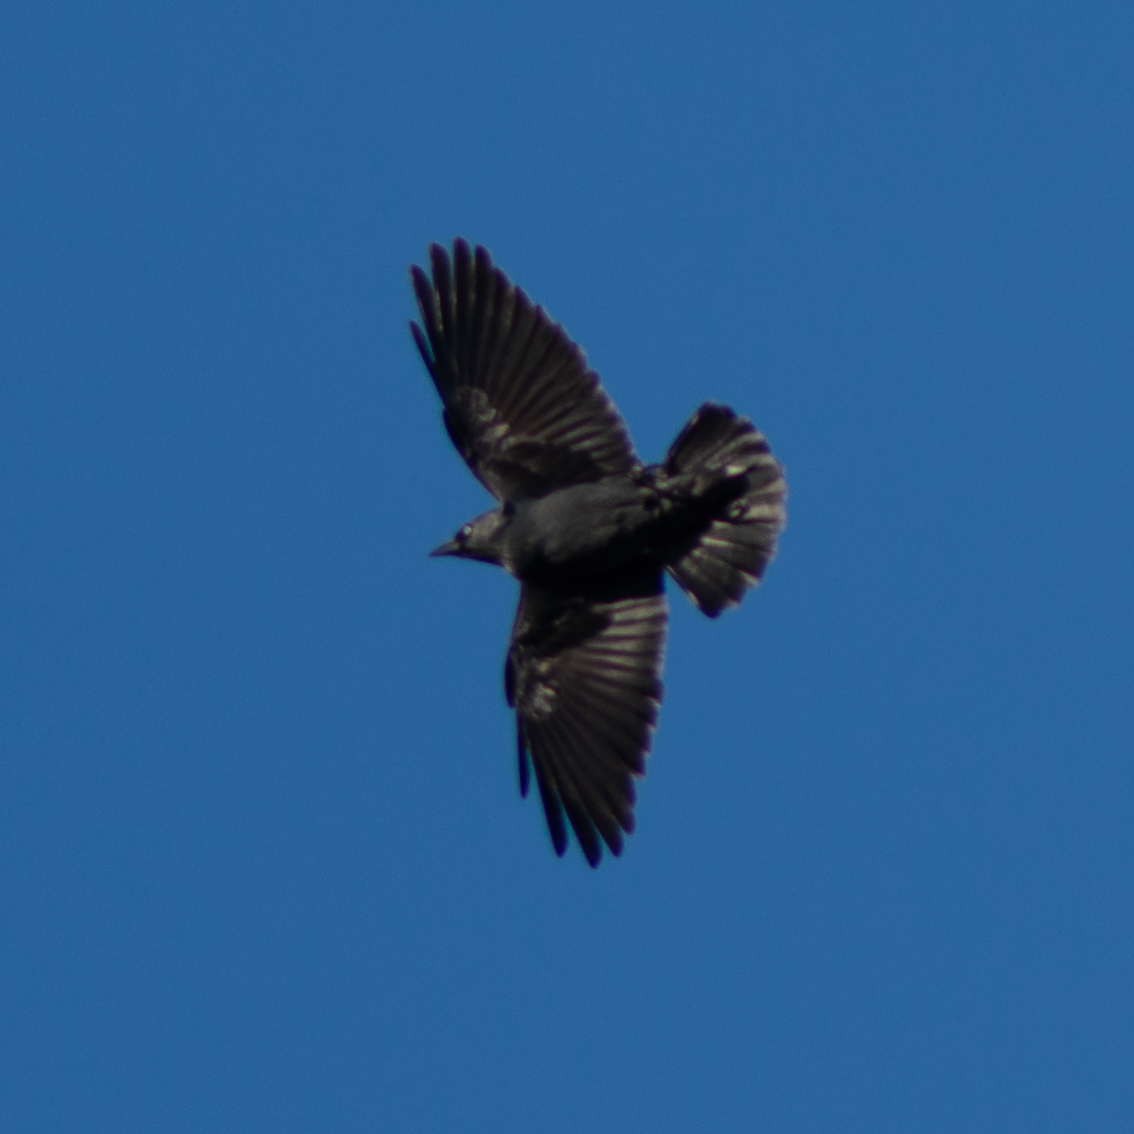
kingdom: Animalia
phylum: Chordata
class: Aves
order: Passeriformes
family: Corvidae
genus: Coloeus
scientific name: Coloeus monedula
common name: Western jackdaw
